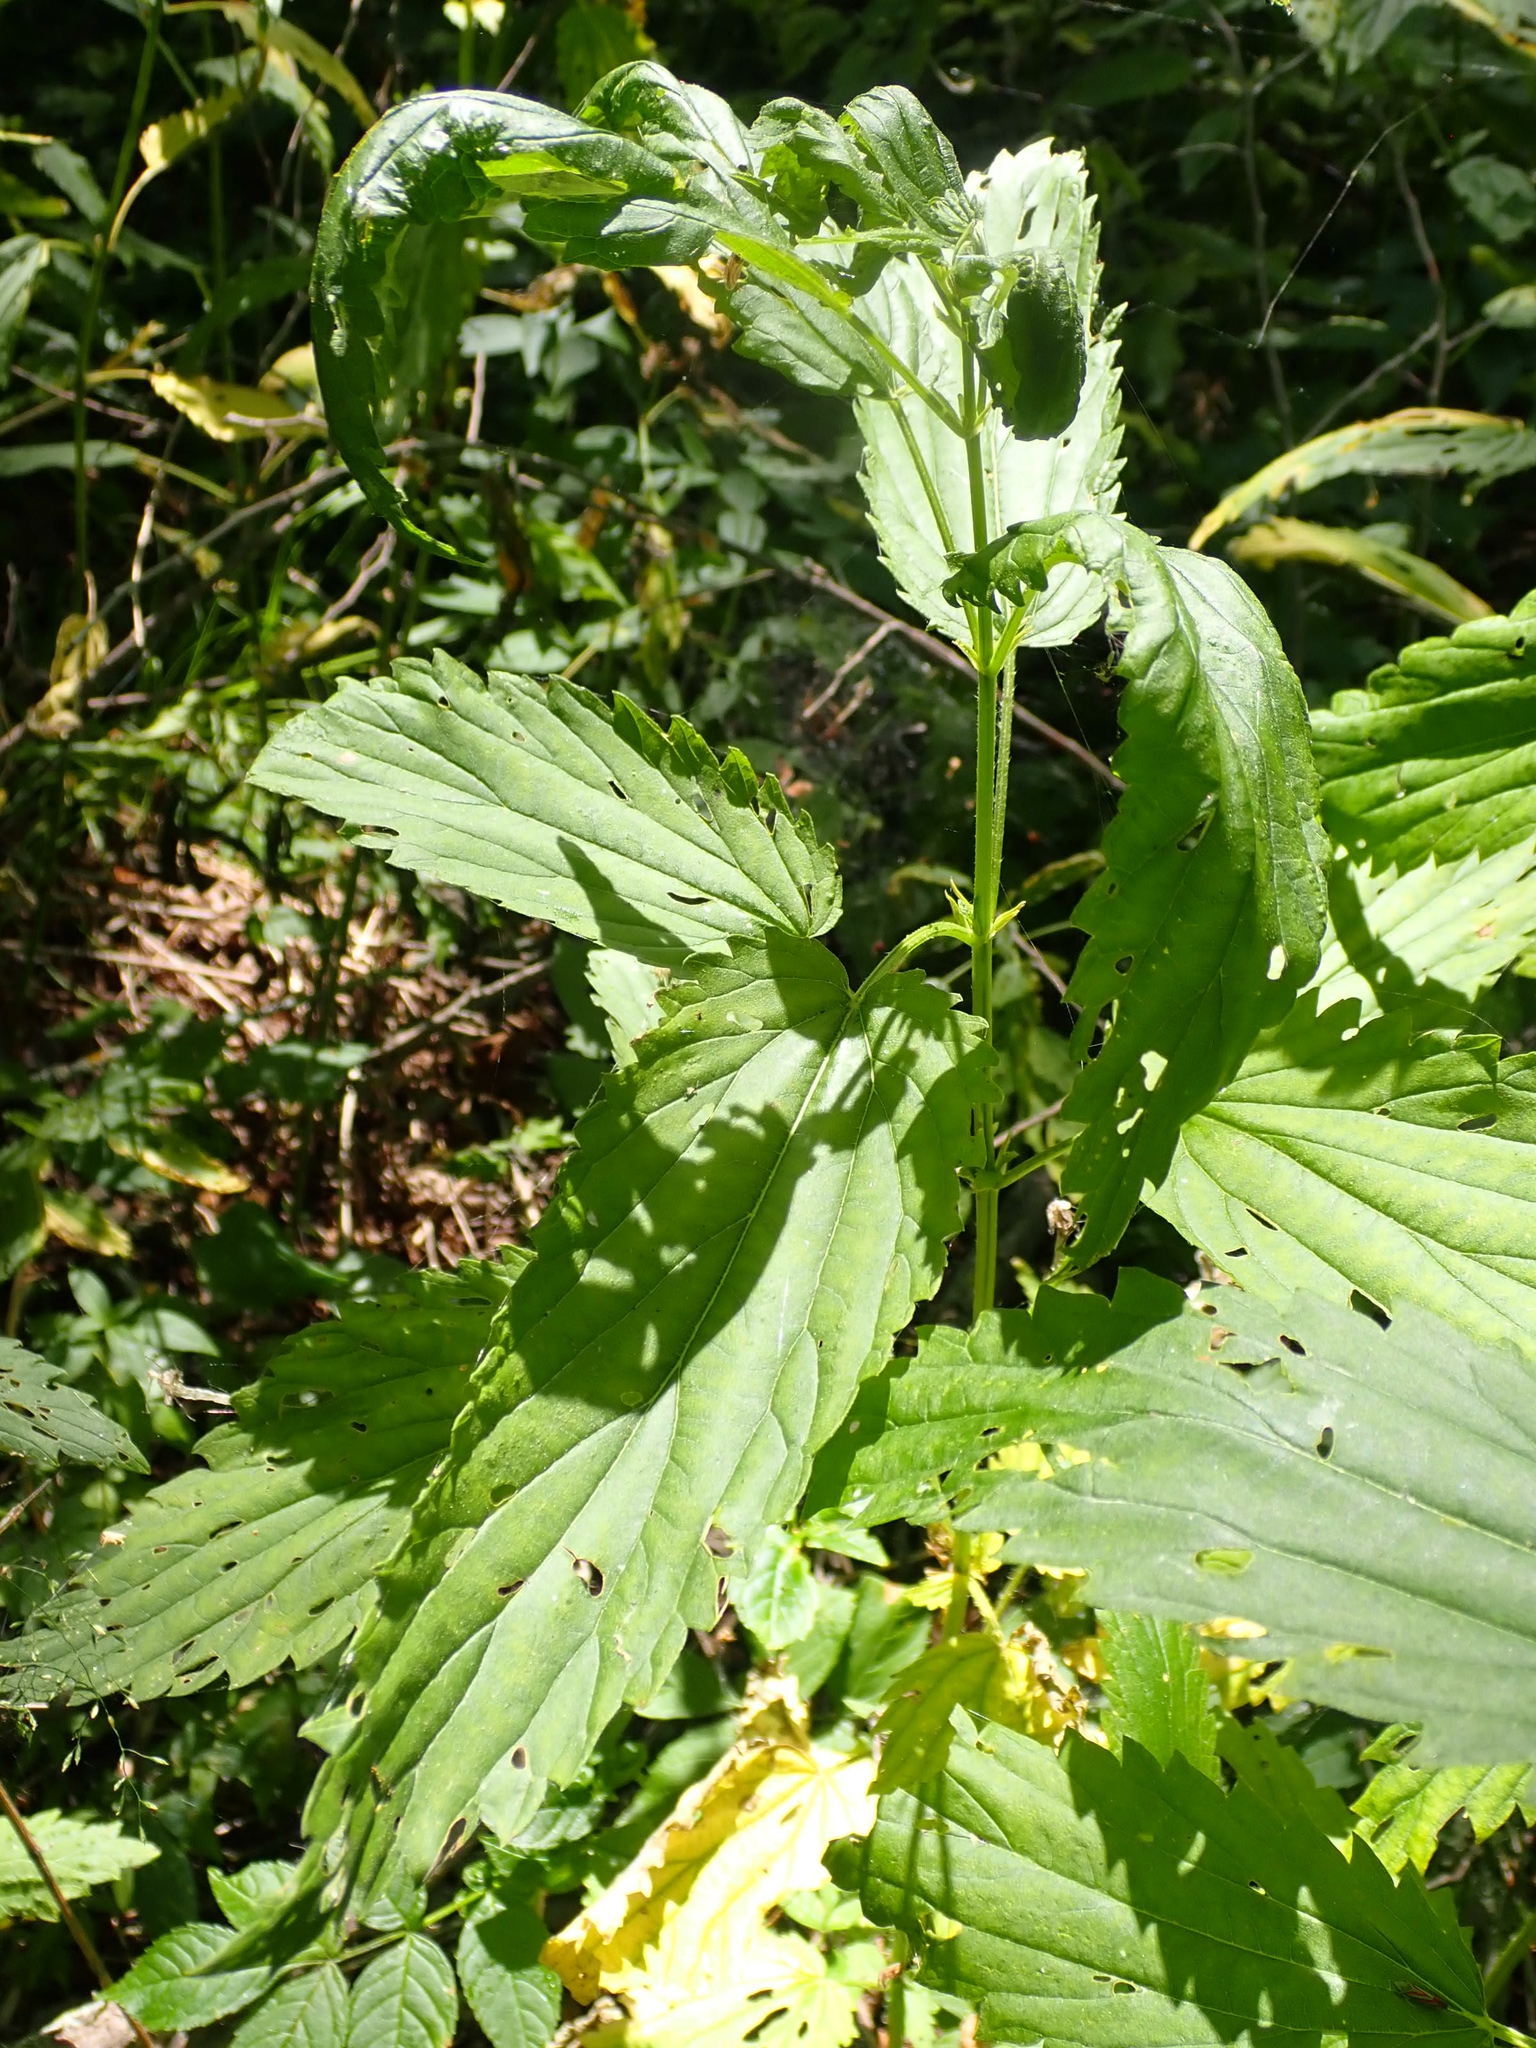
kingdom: Plantae
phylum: Tracheophyta
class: Magnoliopsida
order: Rosales
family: Urticaceae
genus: Urtica
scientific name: Urtica gracilis
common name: Slender stinging nettle
